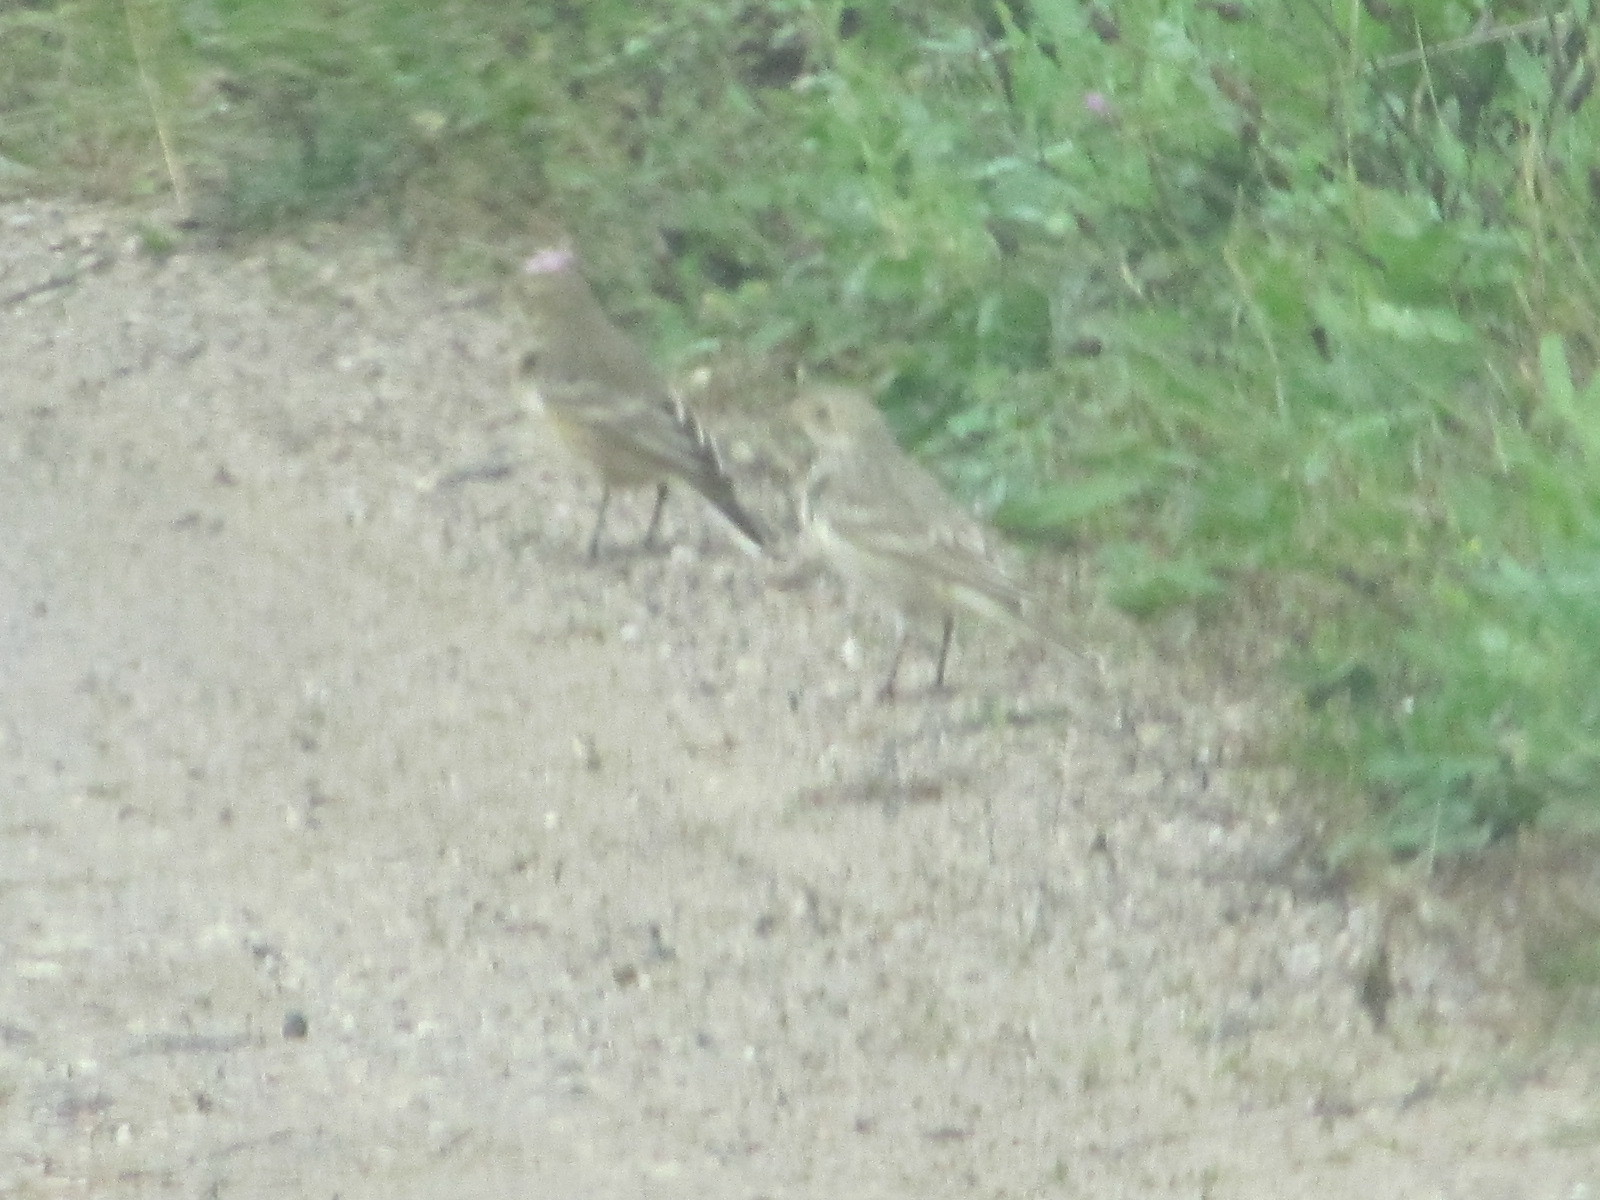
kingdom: Animalia
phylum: Chordata
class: Aves
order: Passeriformes
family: Motacillidae
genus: Anthus
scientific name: Anthus rubescens
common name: Buff-bellied pipit
